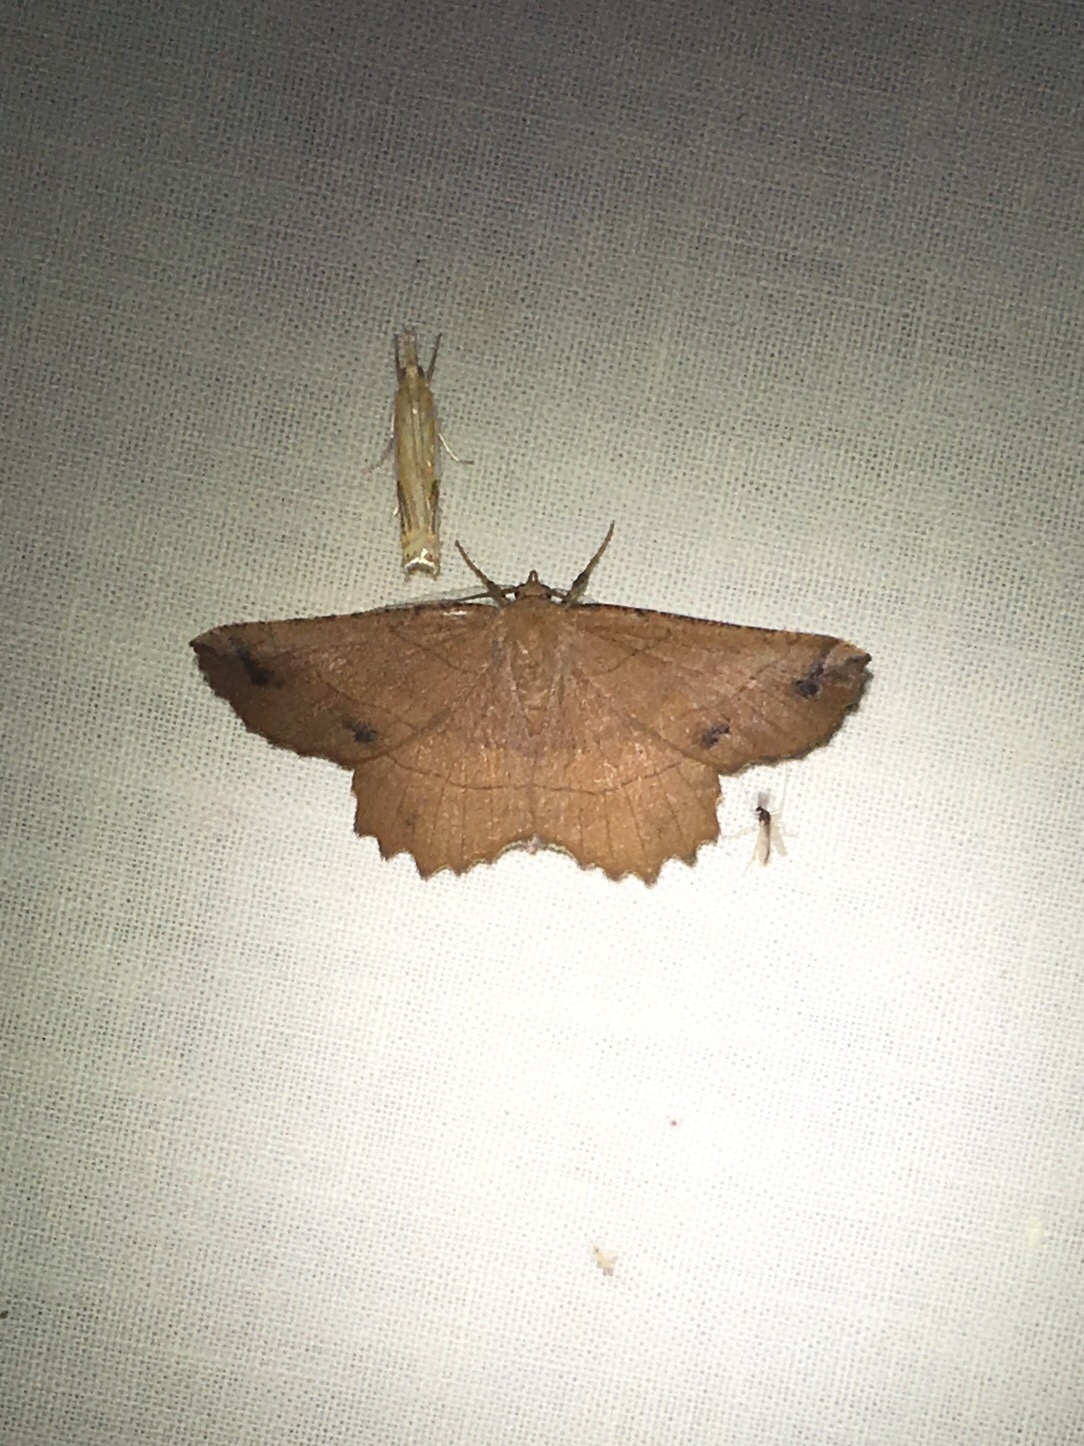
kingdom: Animalia
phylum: Arthropoda
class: Insecta
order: Lepidoptera
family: Geometridae
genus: Euchlaena
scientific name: Euchlaena johnsonaria
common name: Johnson's euchlaena
